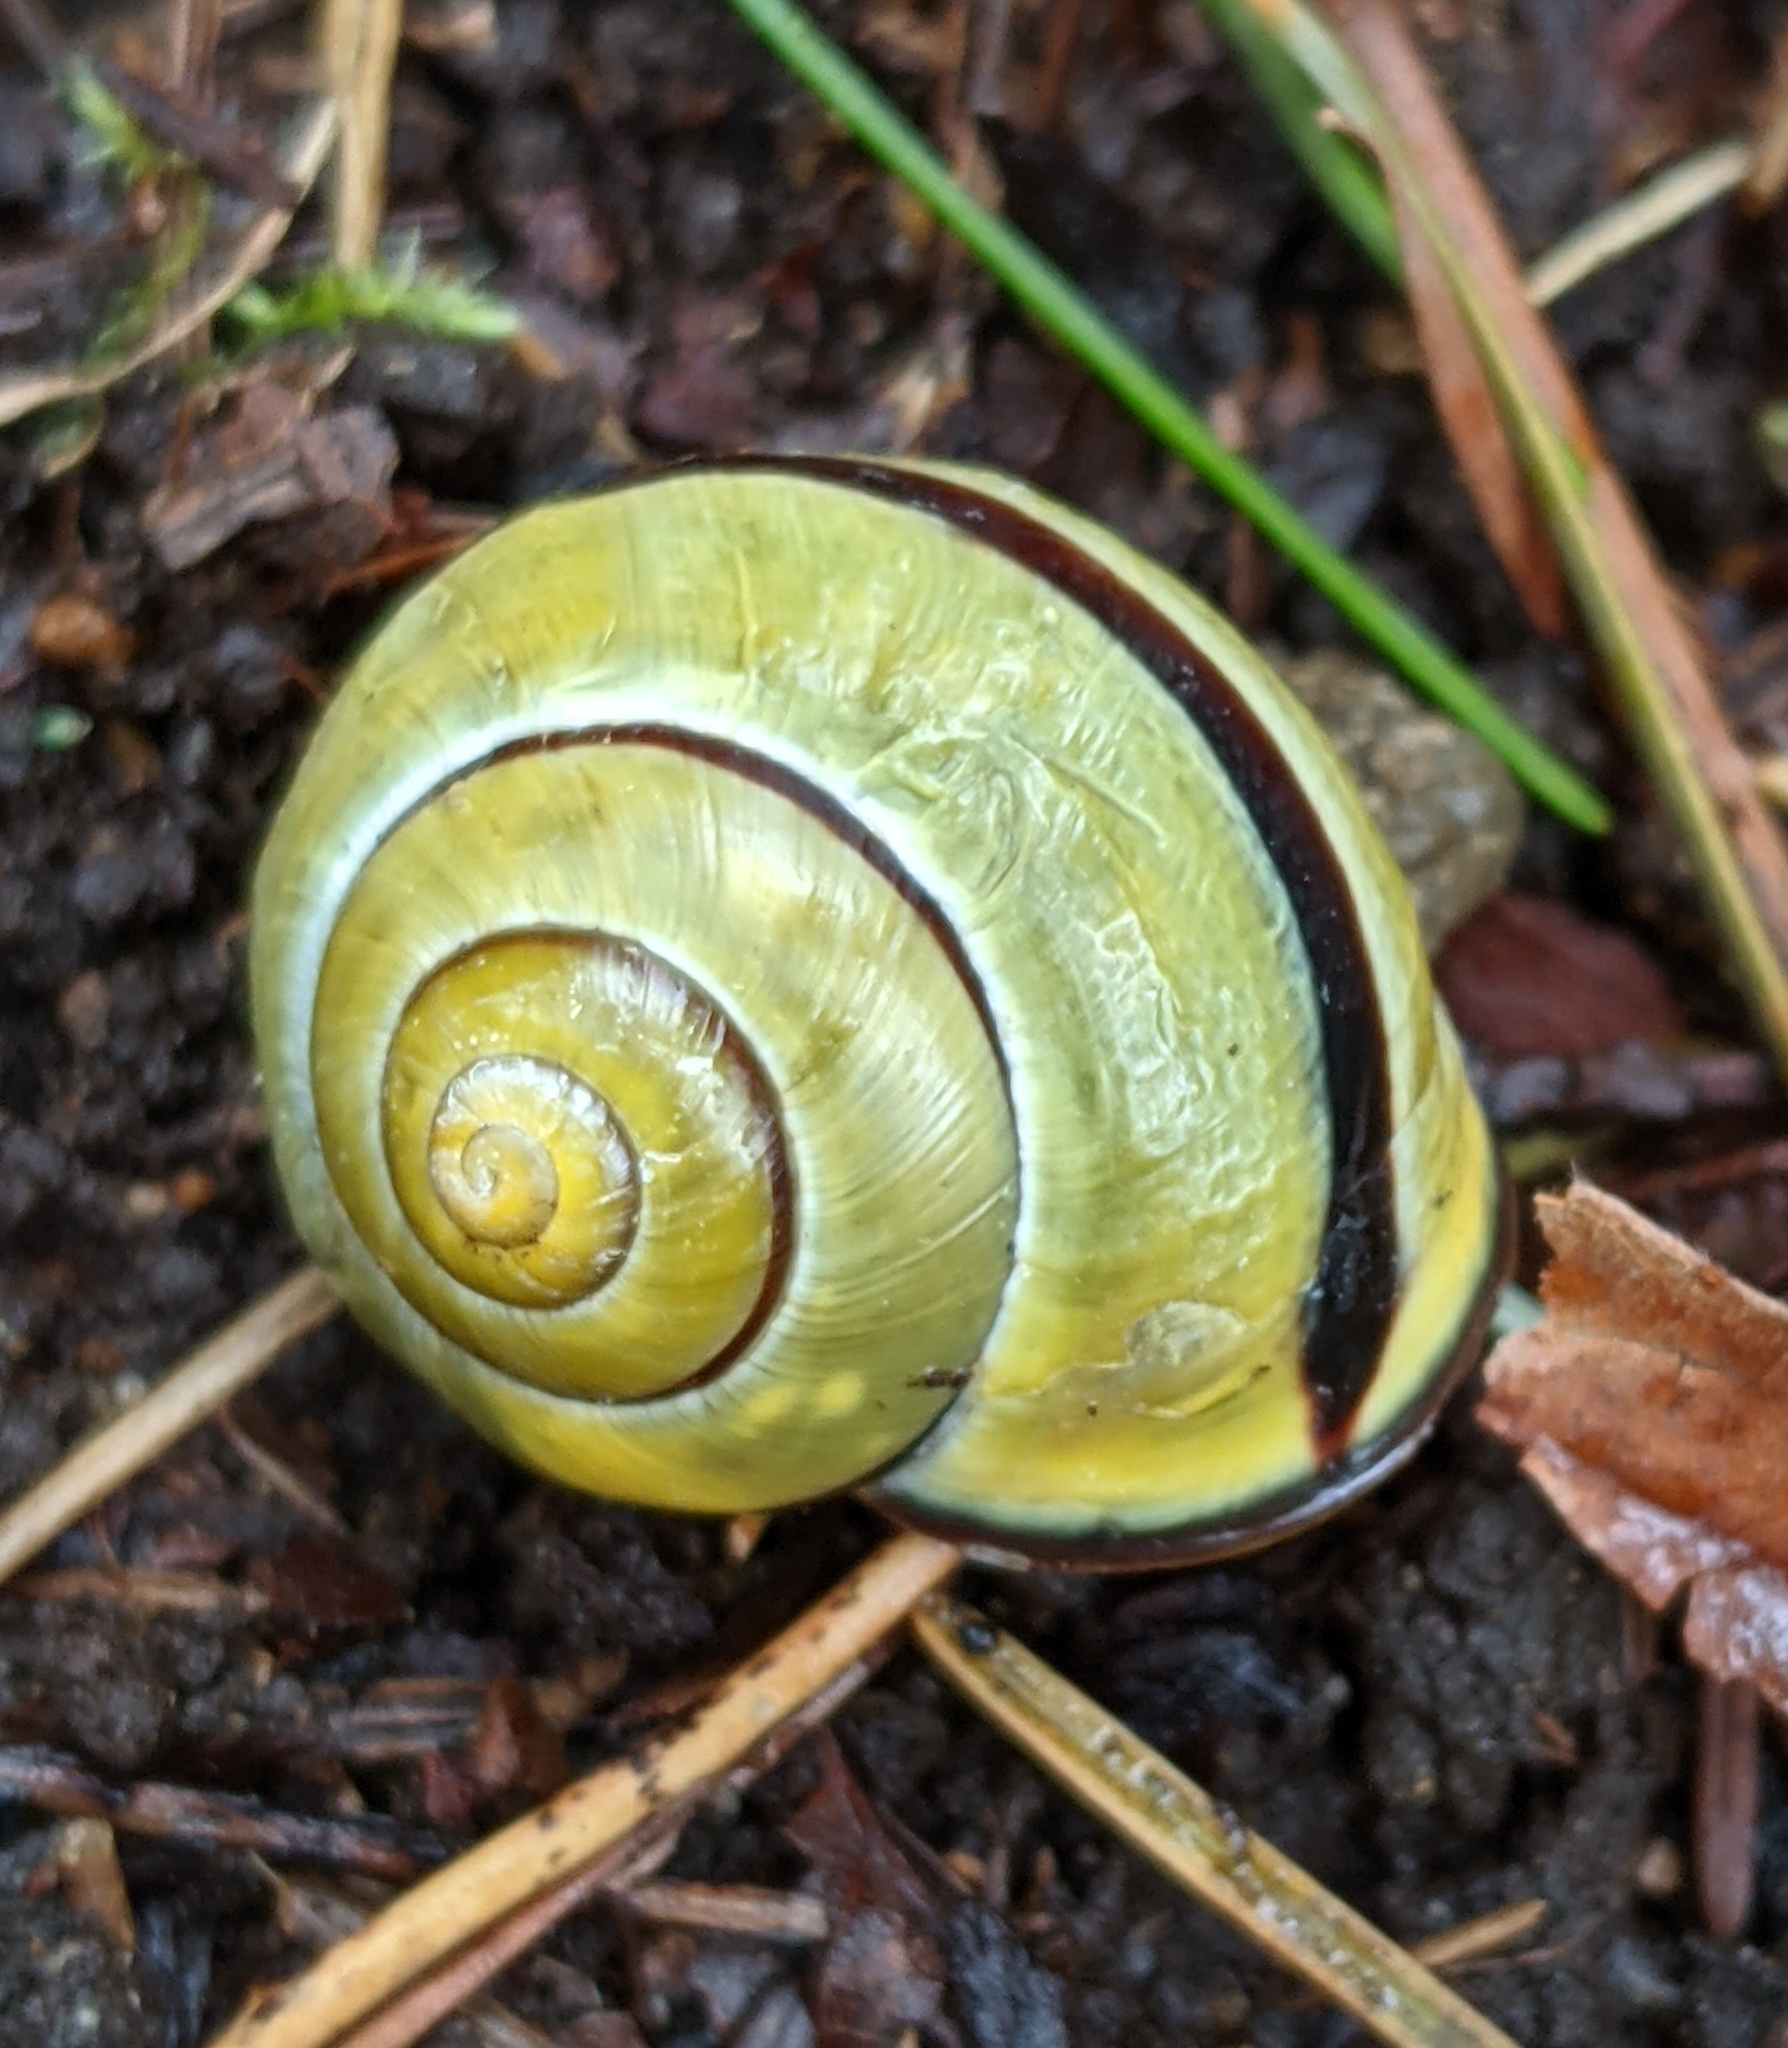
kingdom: Animalia
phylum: Mollusca
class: Gastropoda
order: Stylommatophora
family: Helicidae
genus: Cepaea
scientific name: Cepaea nemoralis
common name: Grovesnail
